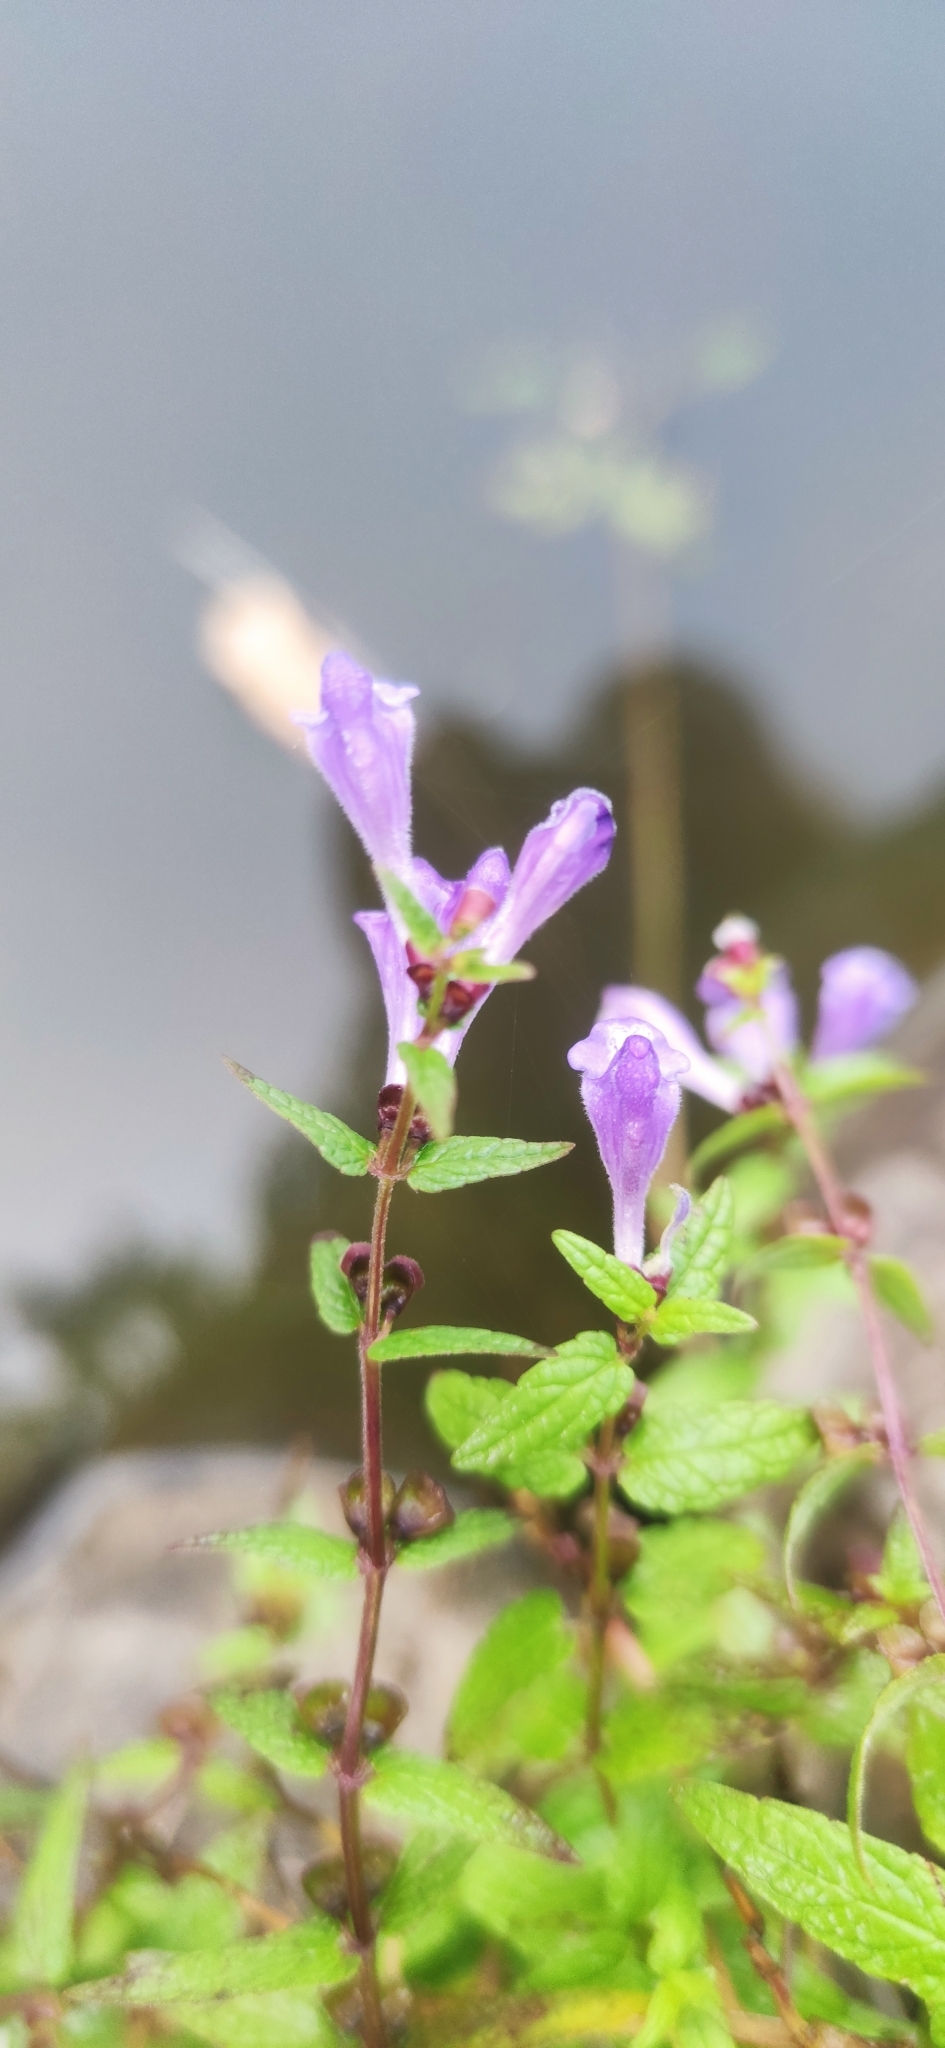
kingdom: Plantae
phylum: Tracheophyta
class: Magnoliopsida
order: Lamiales
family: Lamiaceae
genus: Scutellaria
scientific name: Scutellaria galericulata
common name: Skullcap
